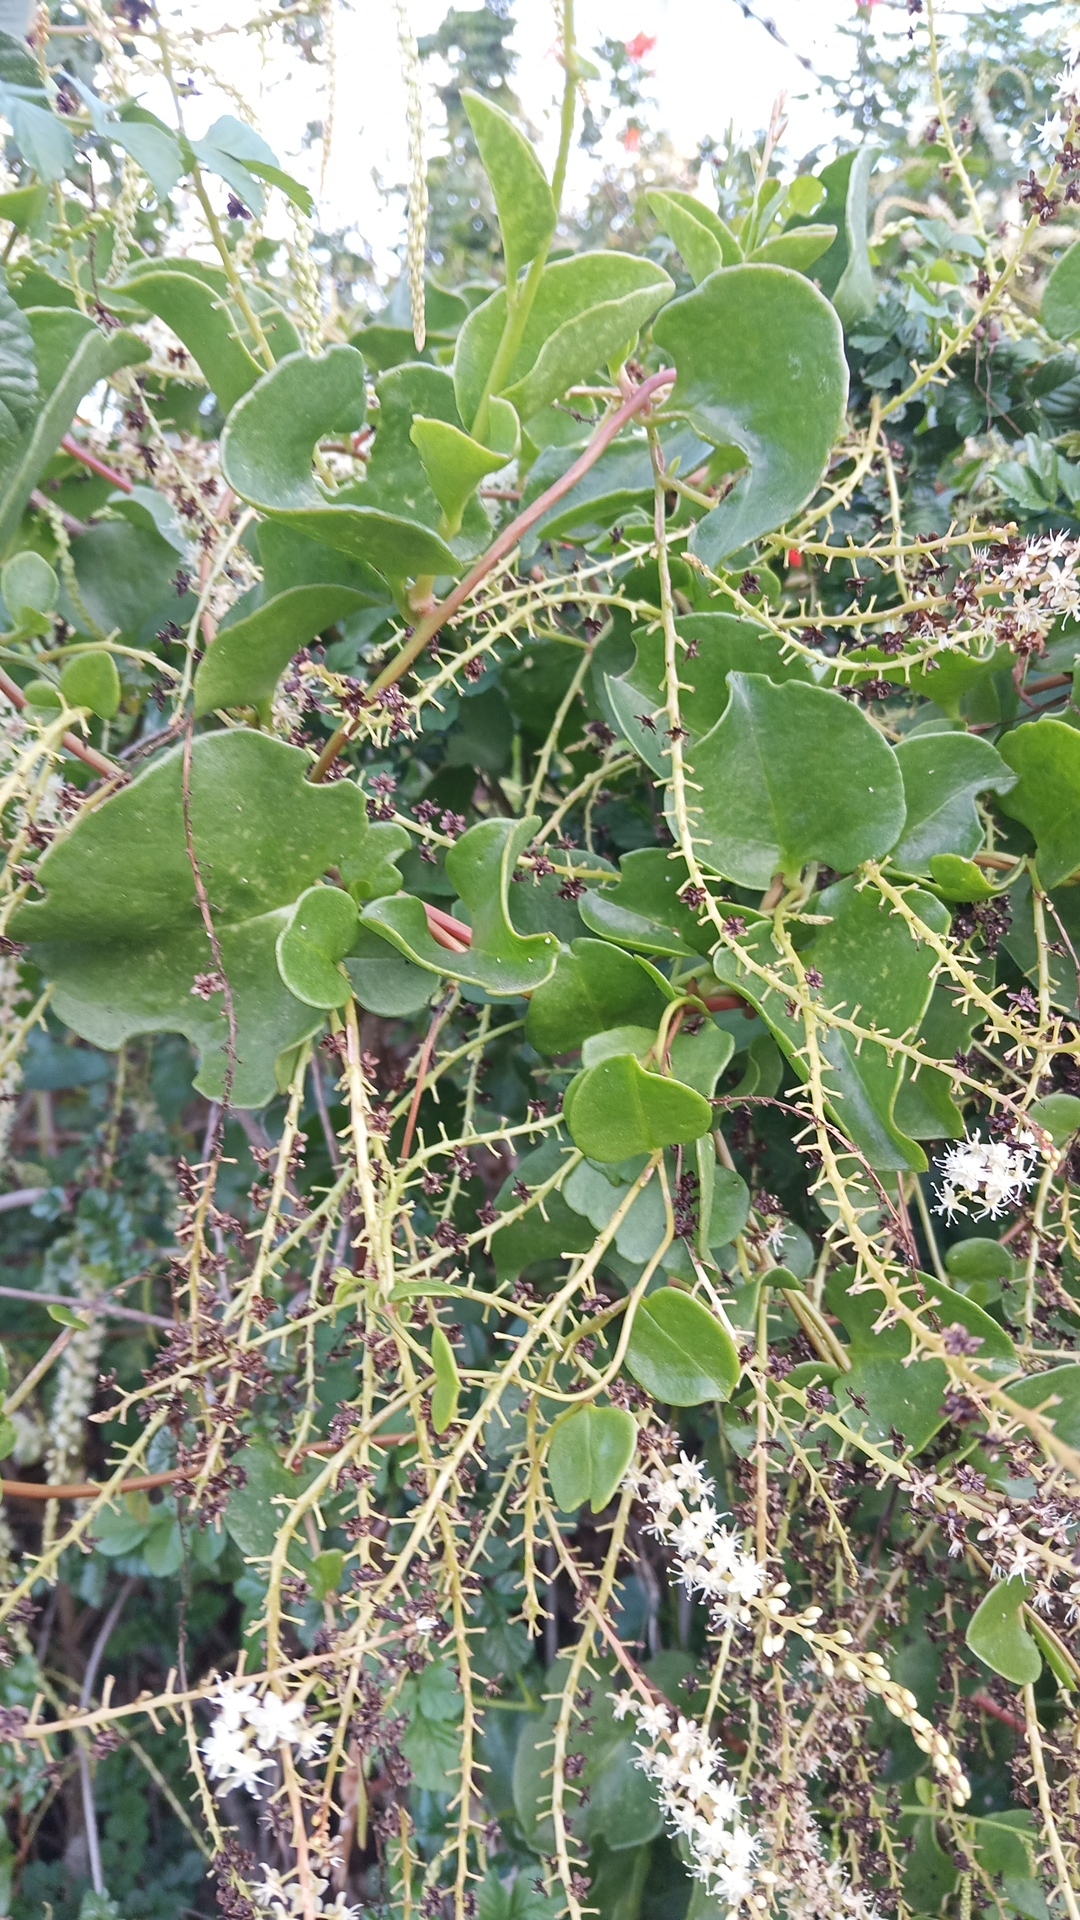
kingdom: Plantae
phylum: Tracheophyta
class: Magnoliopsida
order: Caryophyllales
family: Basellaceae
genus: Anredera
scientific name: Anredera cordifolia
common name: Heartleaf madeiravine
